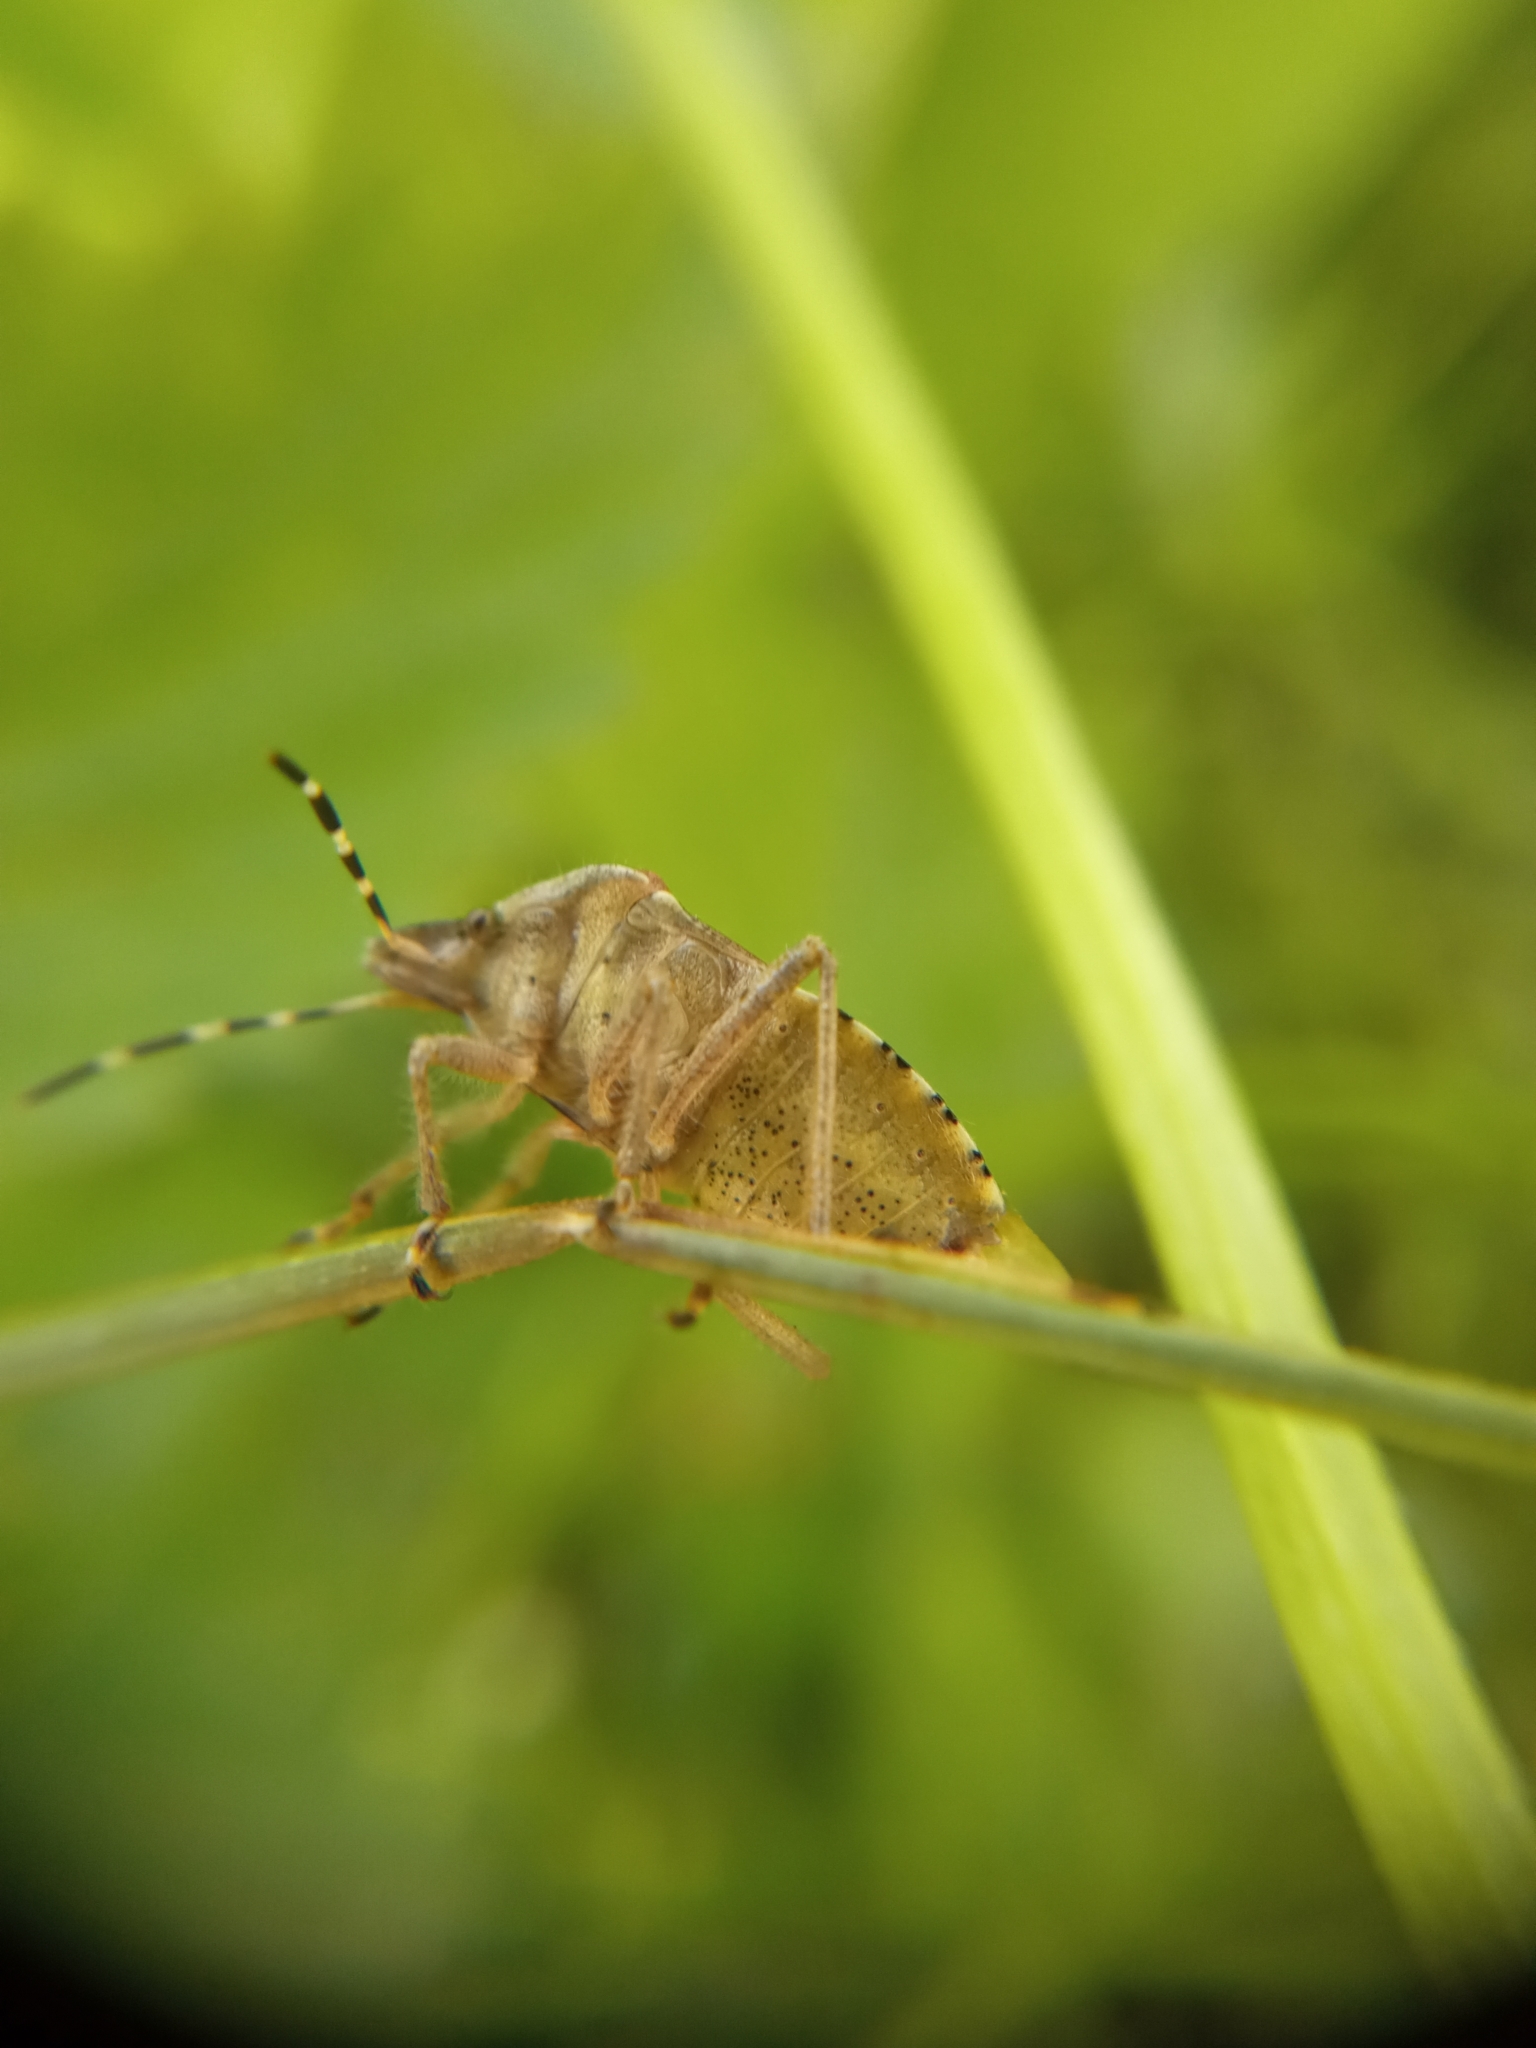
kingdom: Animalia
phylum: Arthropoda
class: Insecta
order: Hemiptera
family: Pentatomidae
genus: Dolycoris
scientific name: Dolycoris baccarum
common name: Sloe bug
